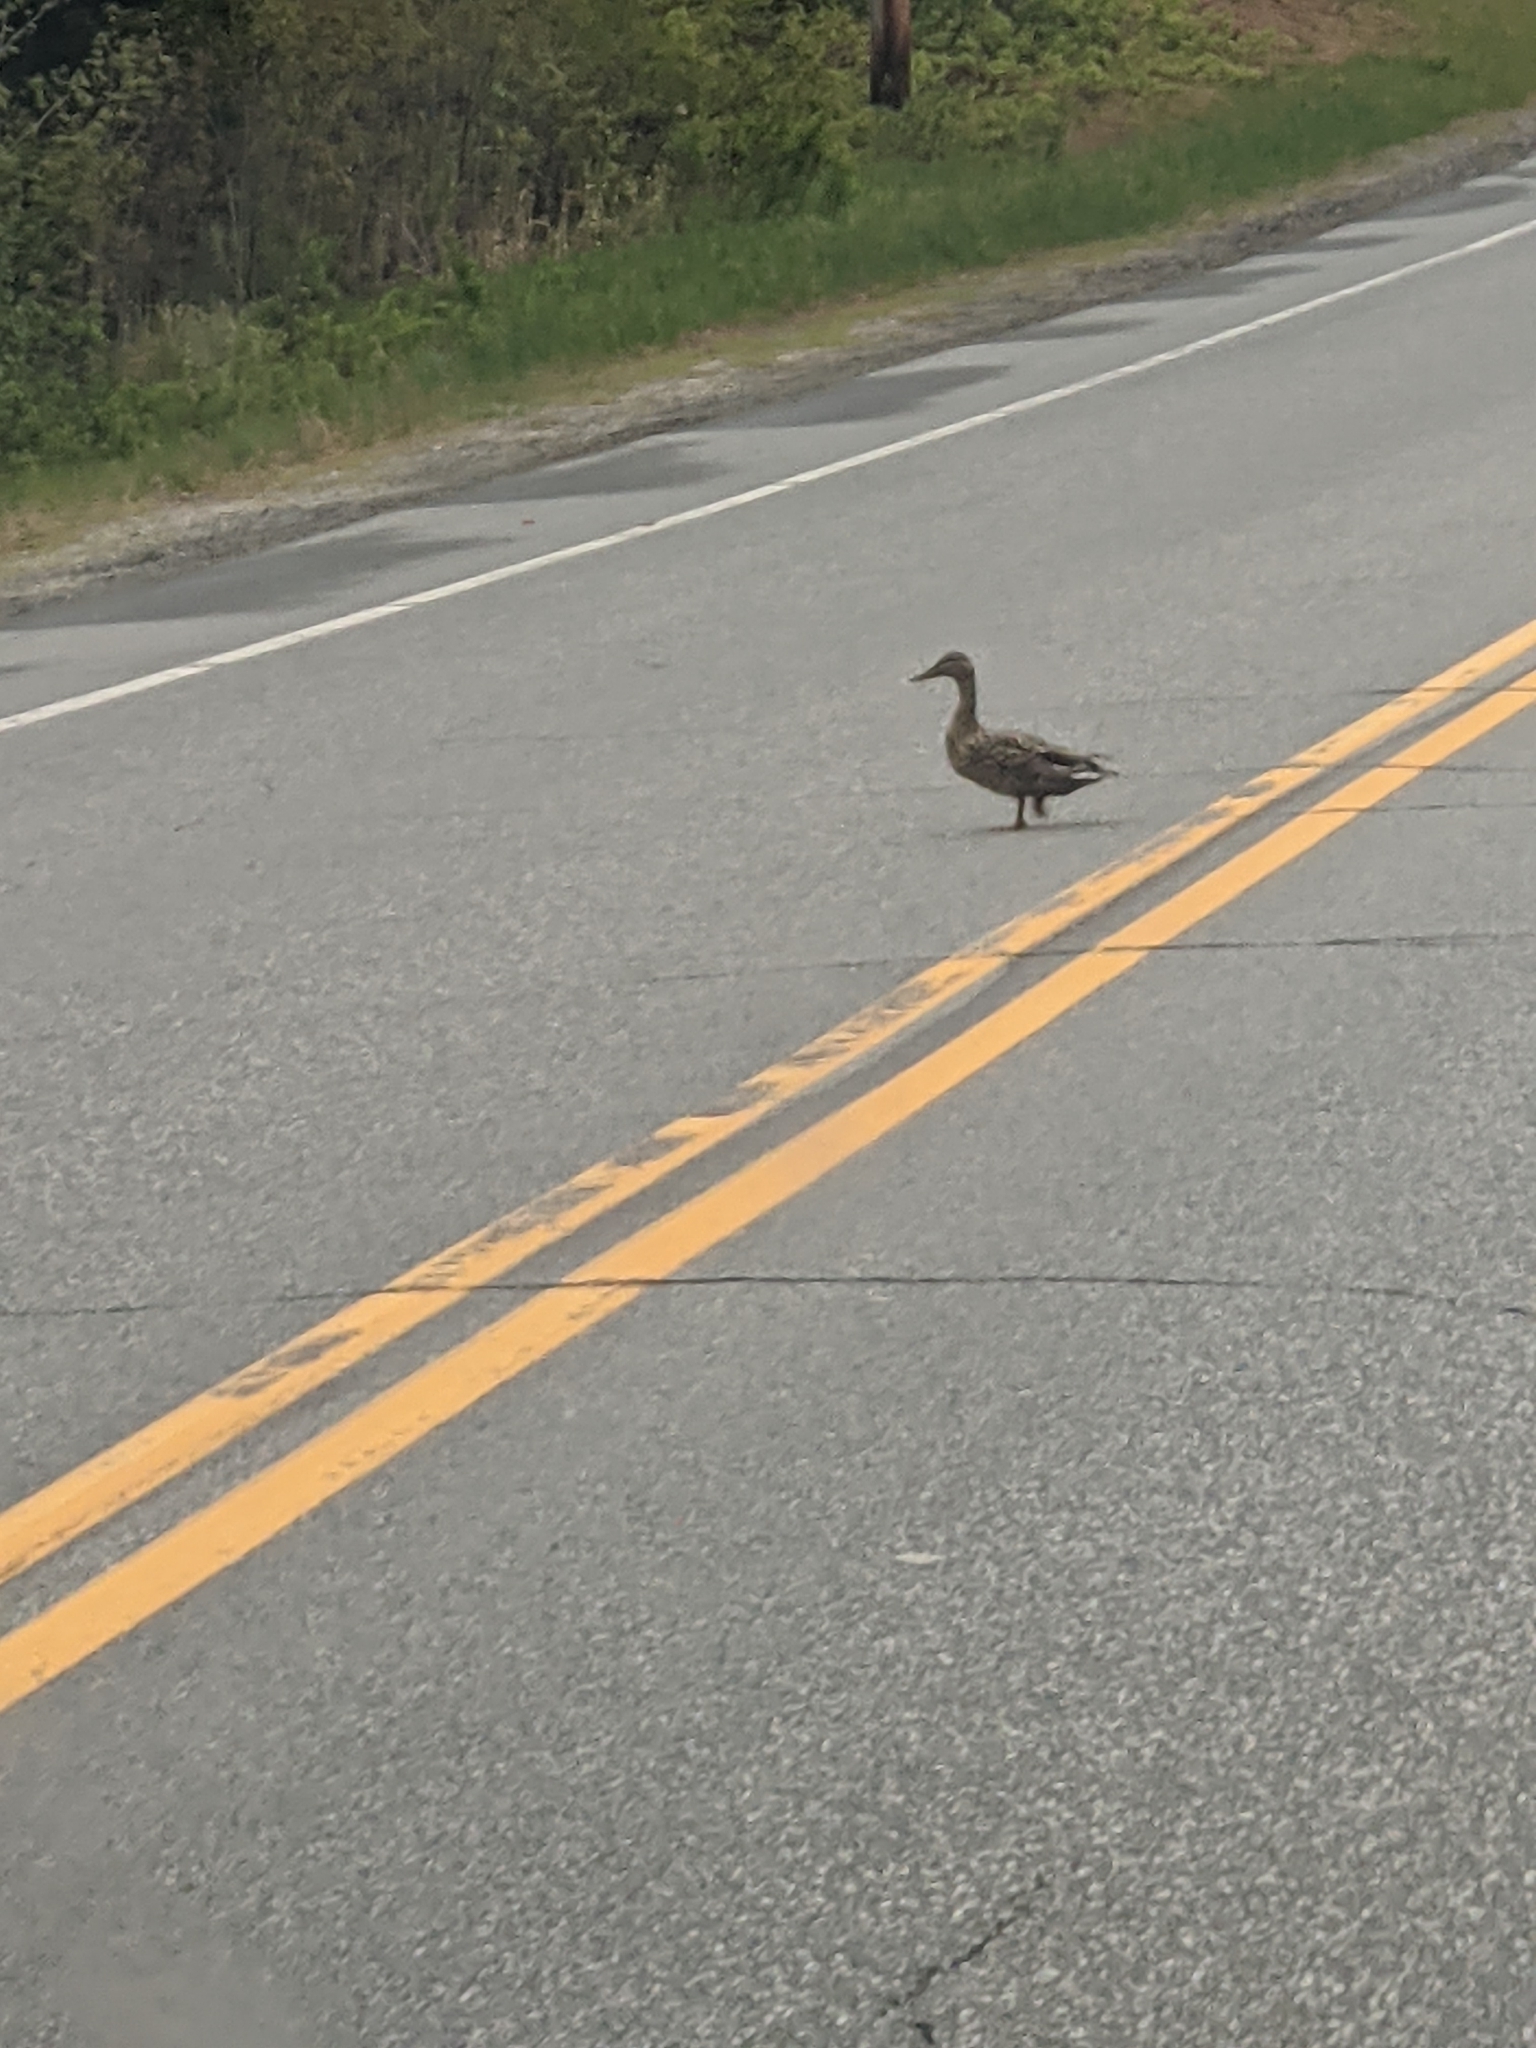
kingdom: Animalia
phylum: Chordata
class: Aves
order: Anseriformes
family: Anatidae
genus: Anas
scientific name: Anas platyrhynchos
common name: Mallard
